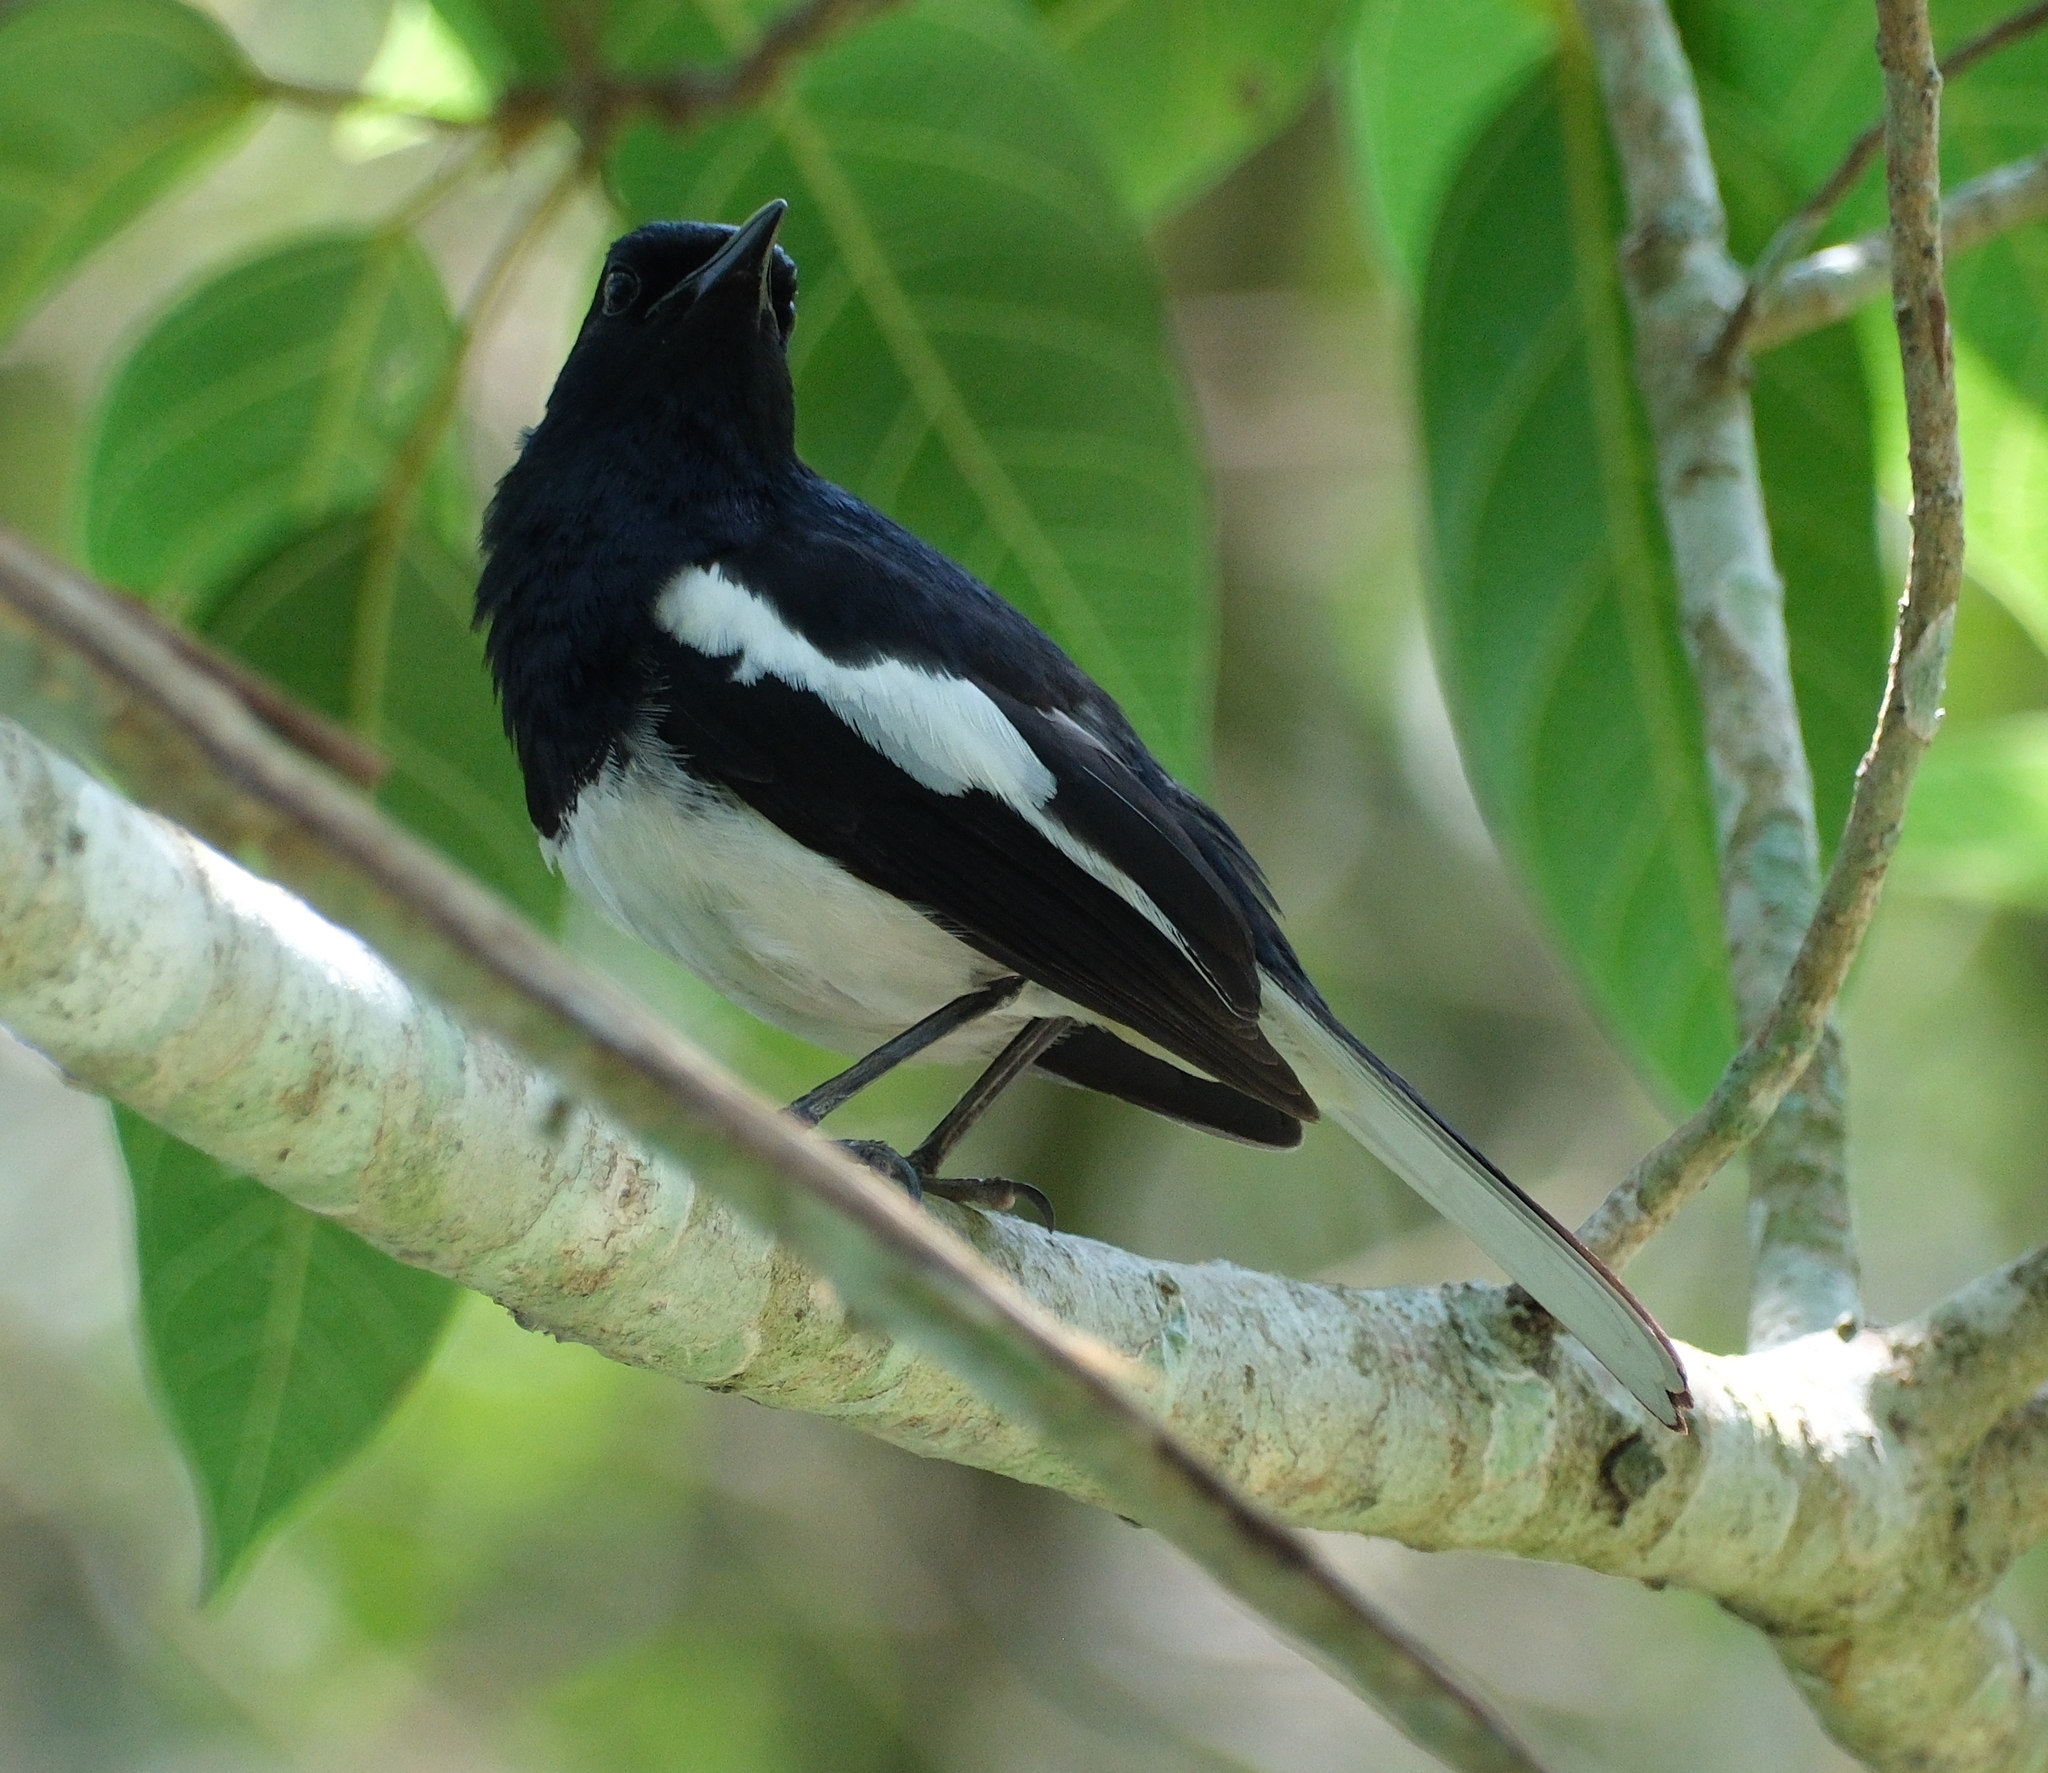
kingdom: Animalia
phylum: Chordata
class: Aves
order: Passeriformes
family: Muscicapidae
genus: Copsychus
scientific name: Copsychus saularis
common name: Oriental magpie-robin
